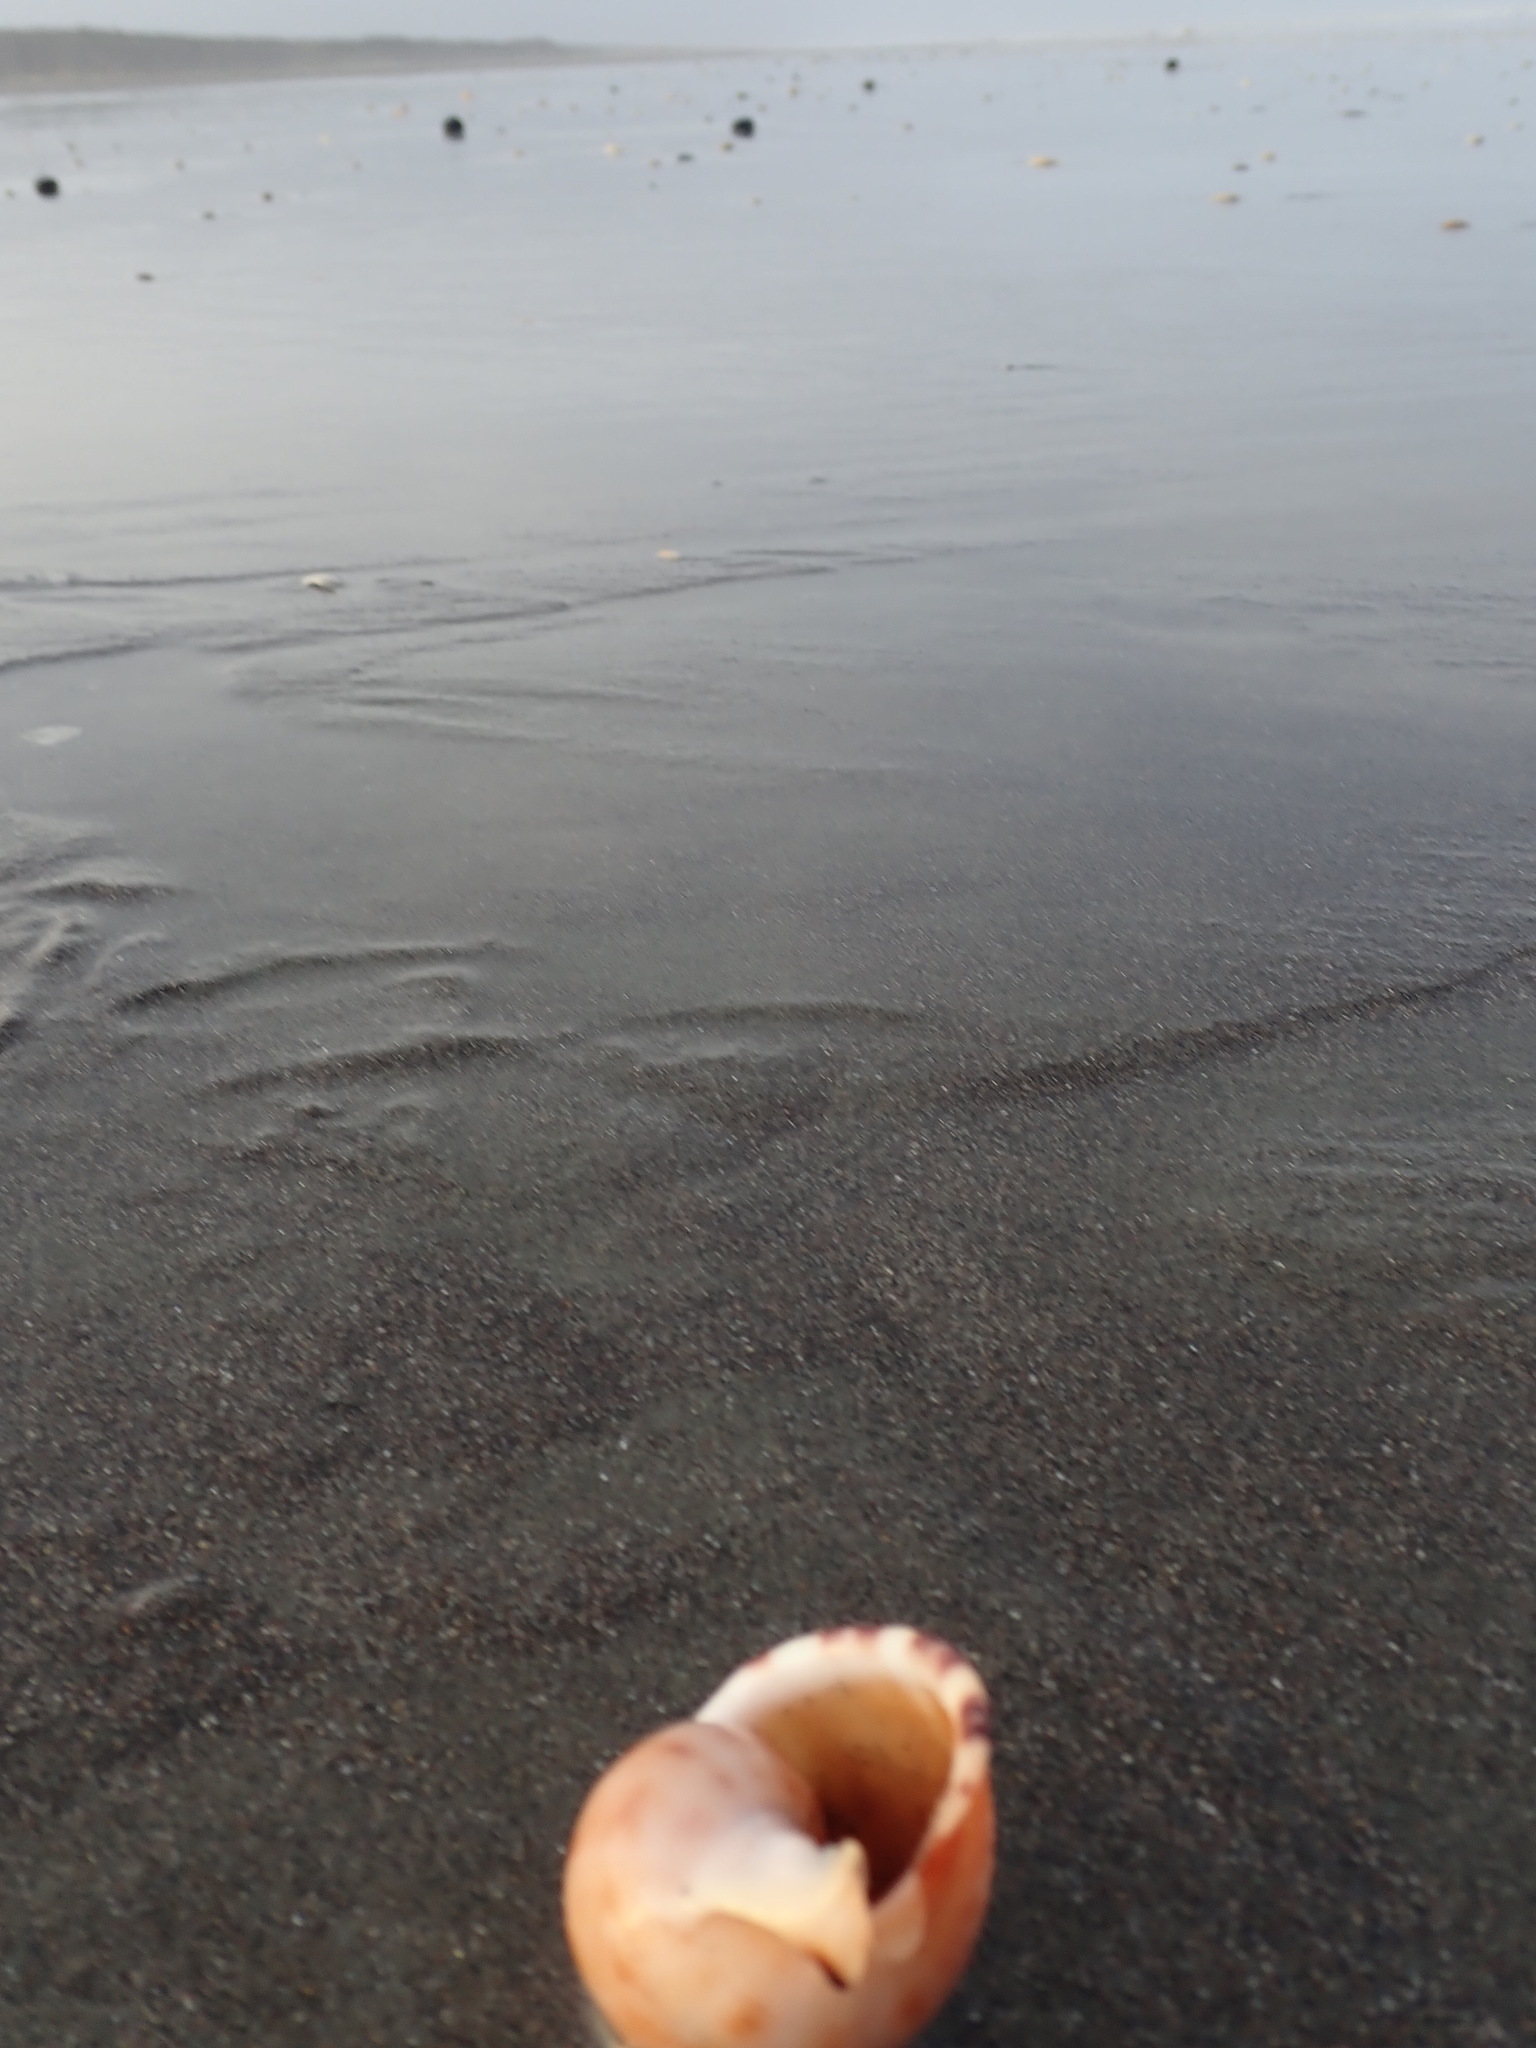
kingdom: Animalia
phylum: Mollusca
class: Gastropoda
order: Littorinimorpha
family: Cassidae
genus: Semicassis
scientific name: Semicassis pyrum
